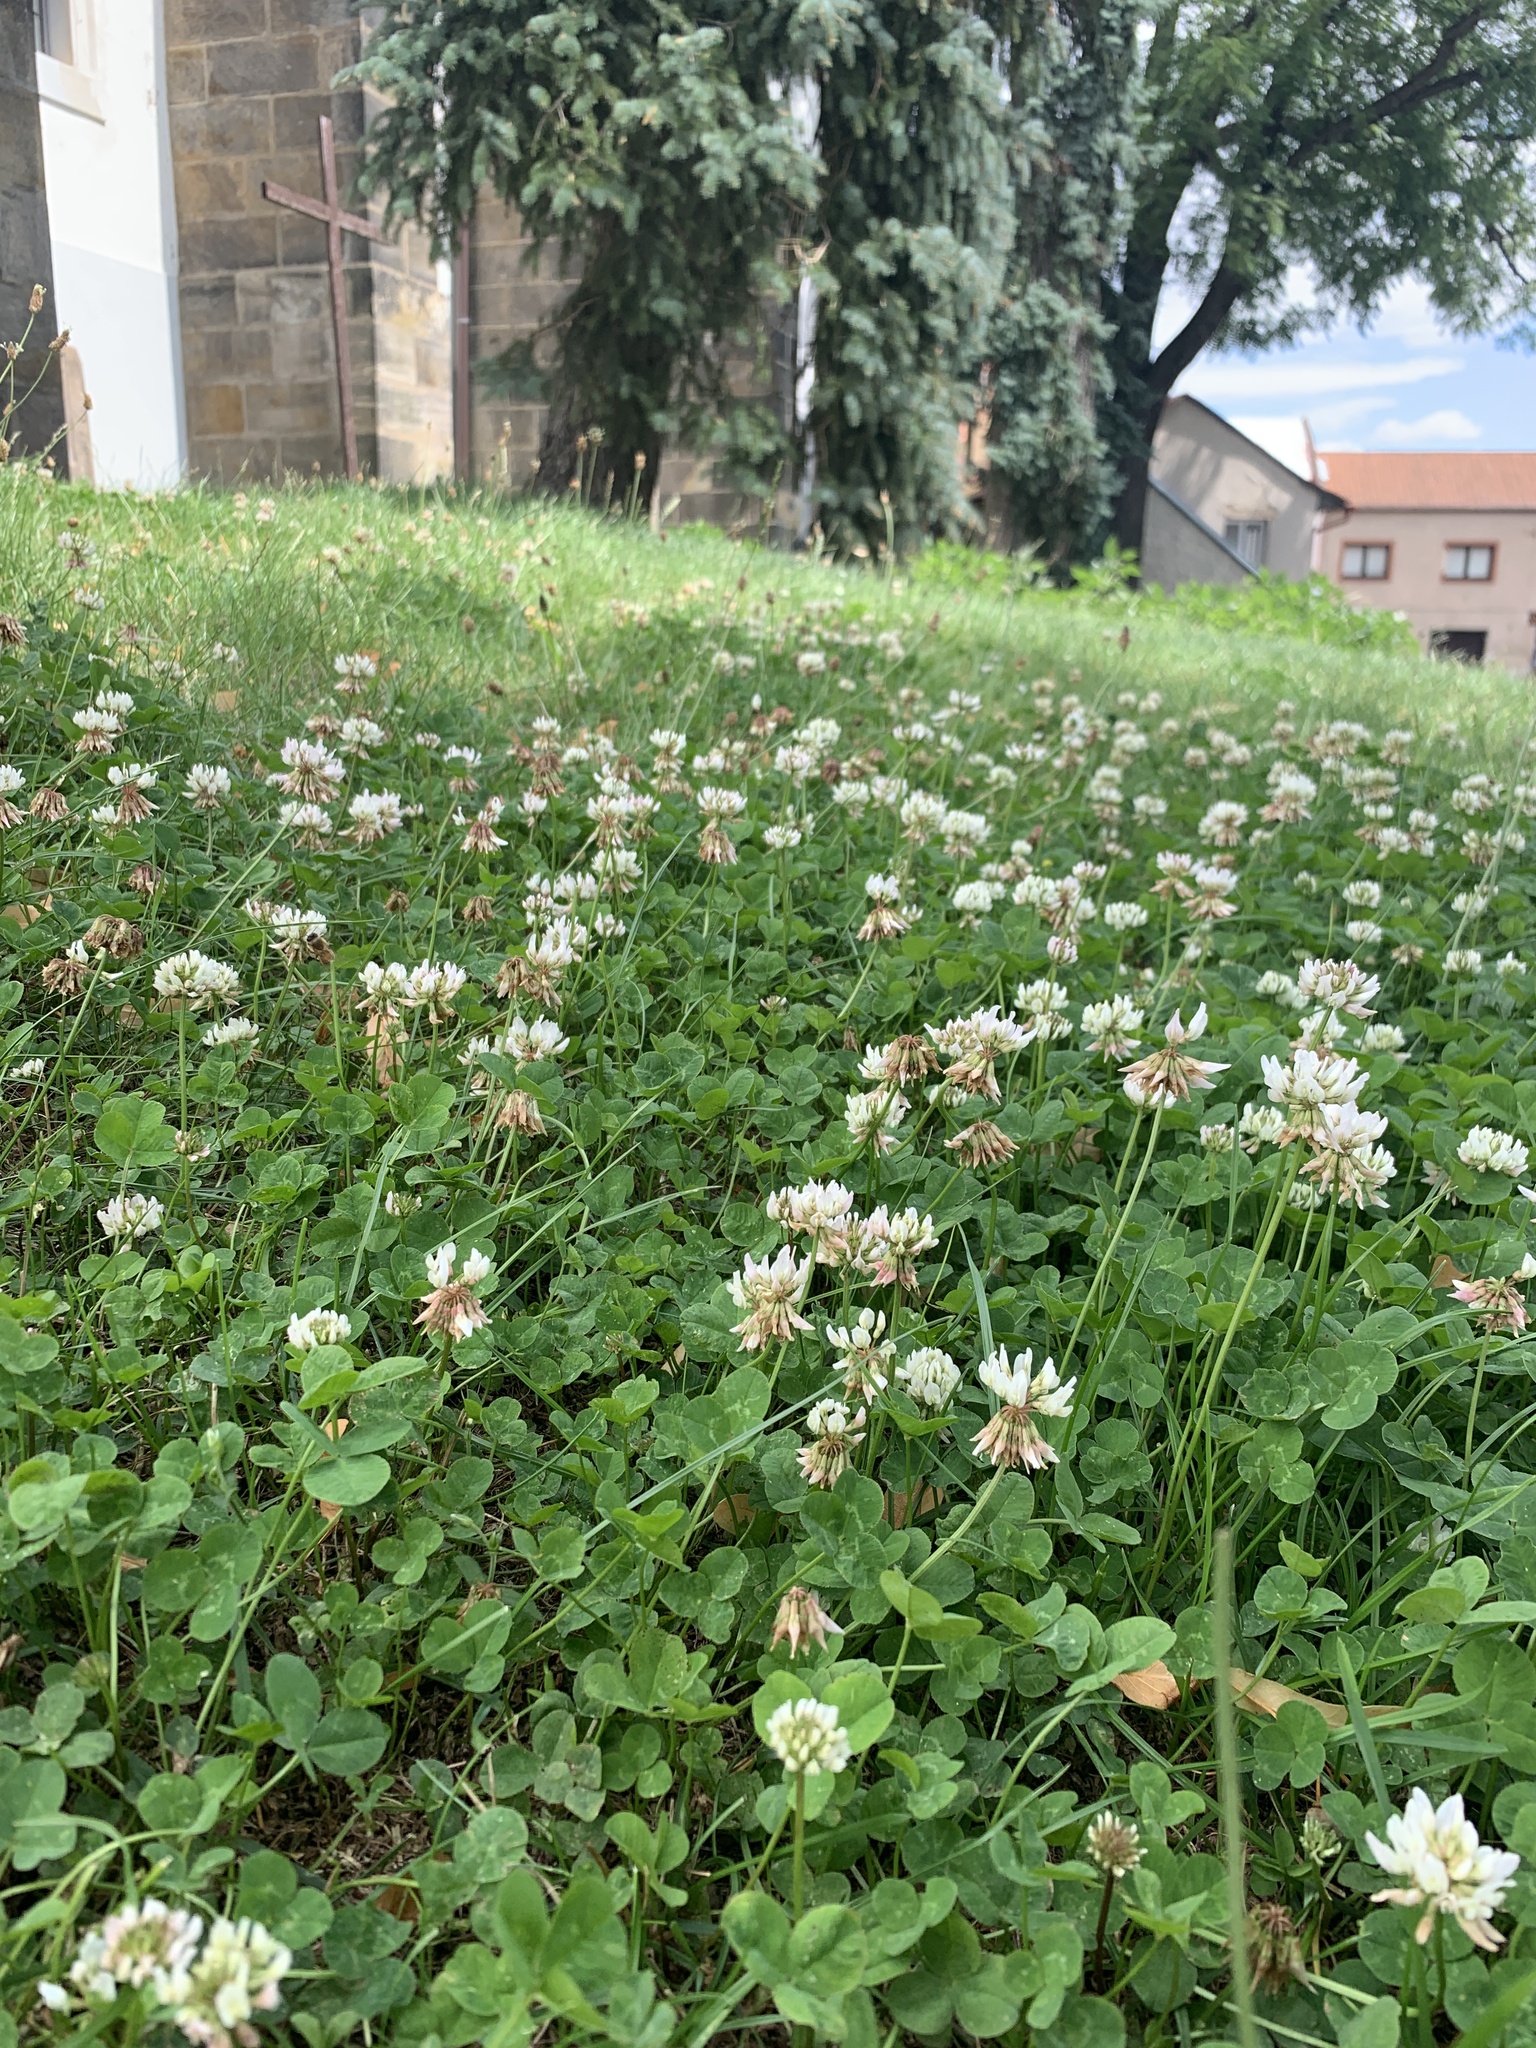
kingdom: Plantae
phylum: Tracheophyta
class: Magnoliopsida
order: Fabales
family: Fabaceae
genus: Trifolium
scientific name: Trifolium repens
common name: White clover
